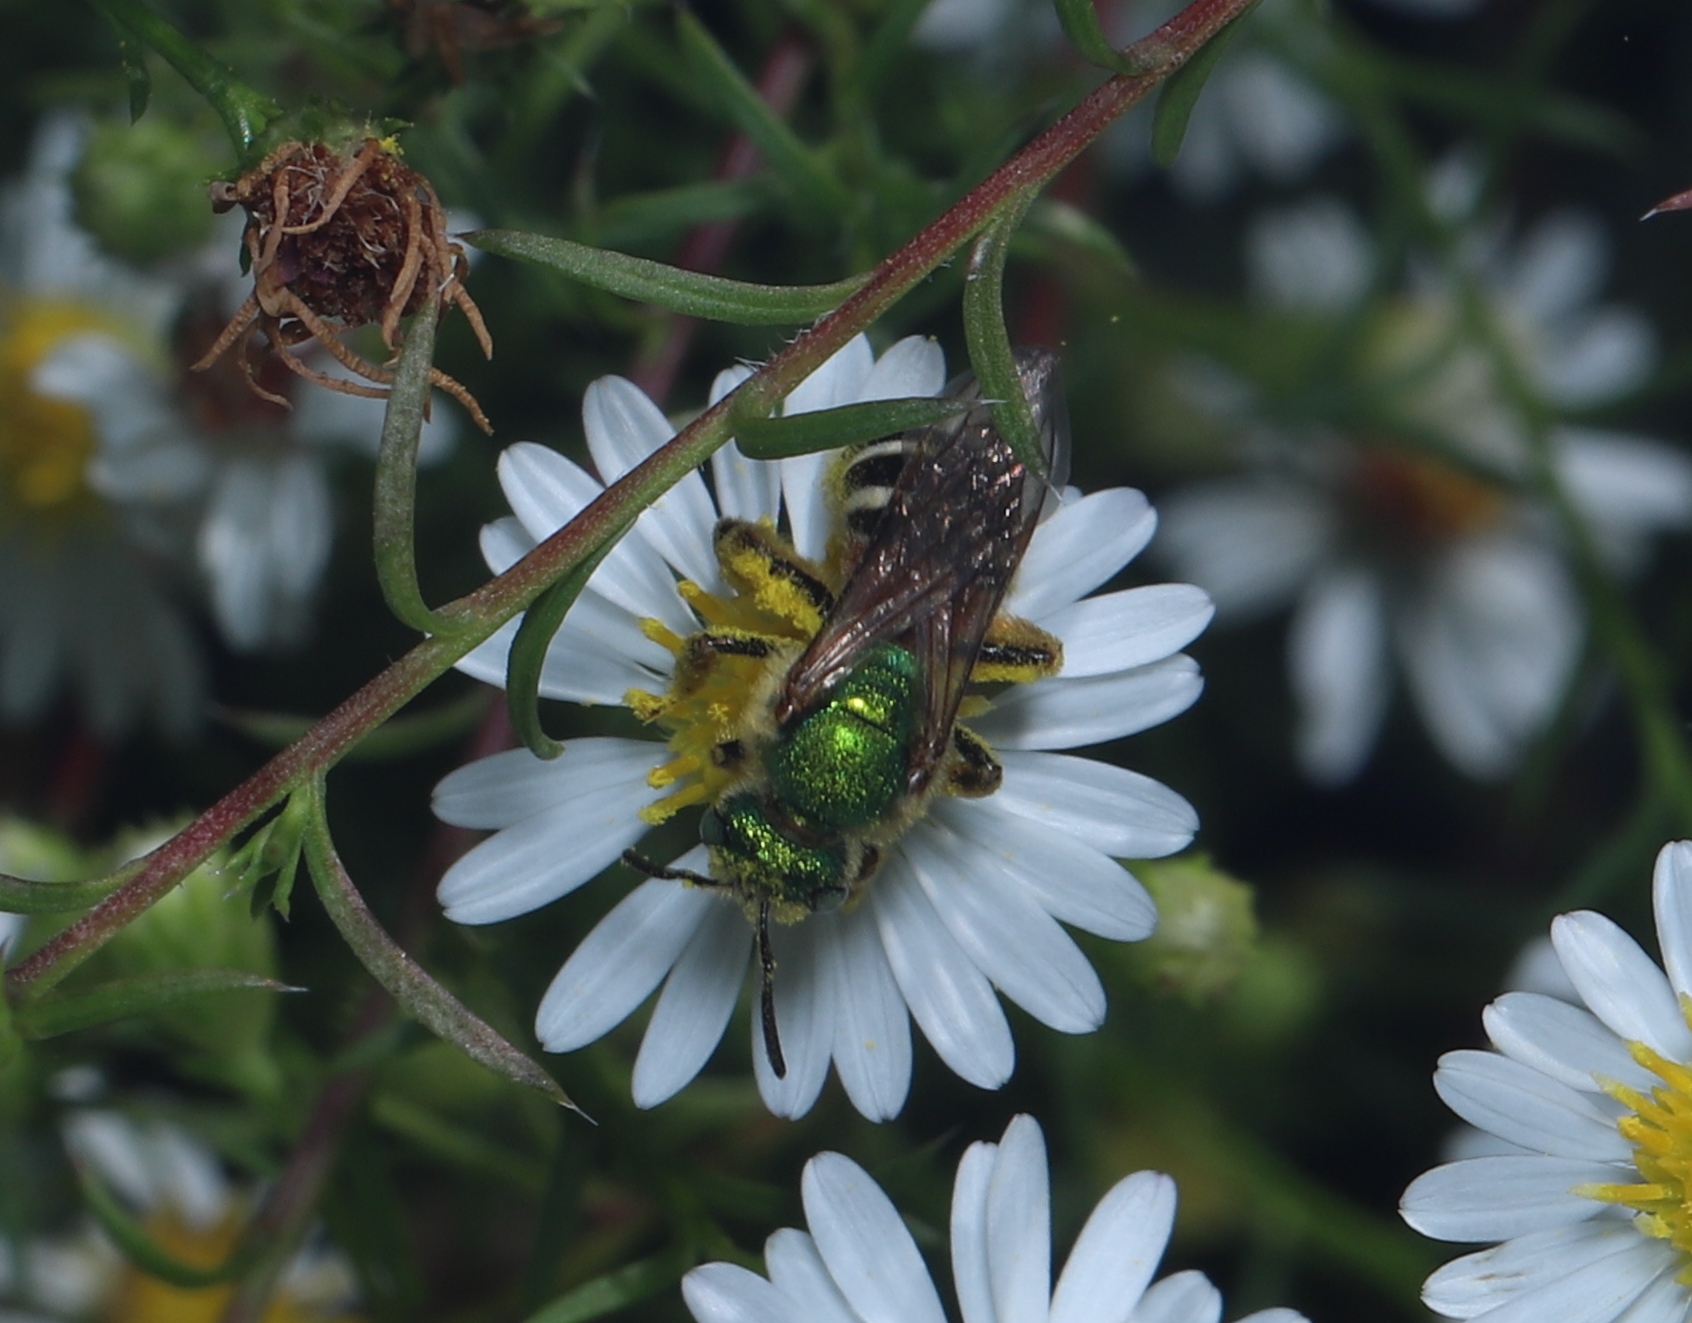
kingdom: Animalia
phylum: Arthropoda
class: Insecta
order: Hymenoptera
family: Halictidae
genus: Agapostemon
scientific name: Agapostemon virescens
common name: Bicolored striped sweat bee
